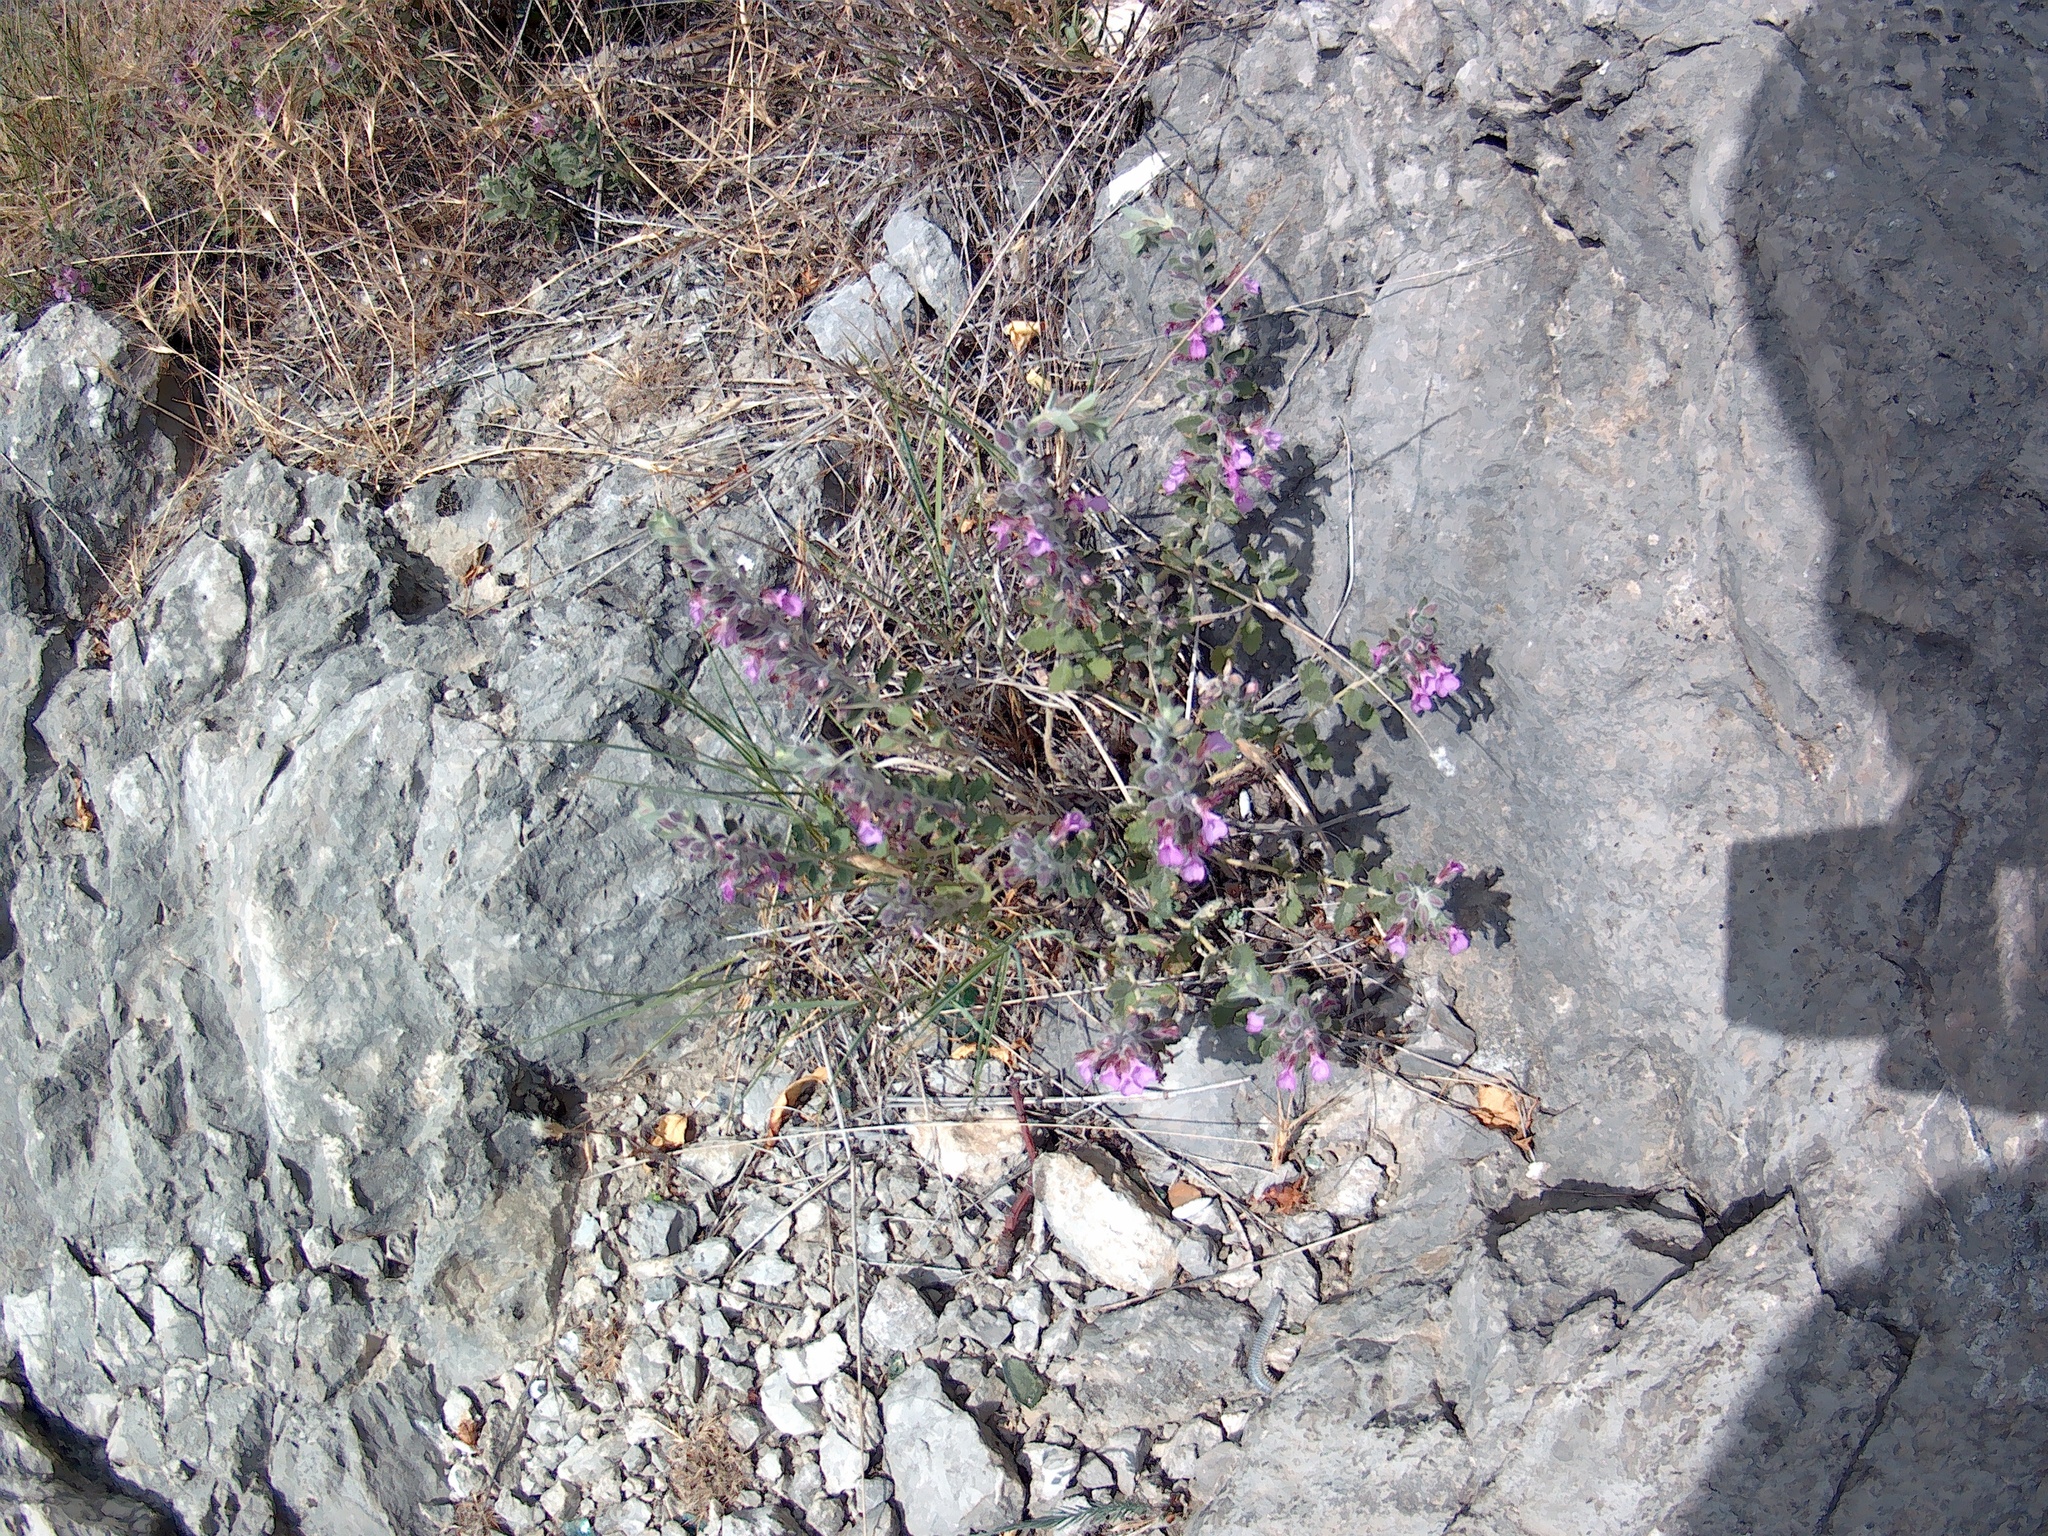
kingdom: Plantae
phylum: Tracheophyta
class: Magnoliopsida
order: Lamiales
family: Lamiaceae
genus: Teucrium
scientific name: Teucrium chamaedrys
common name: Wall germander
